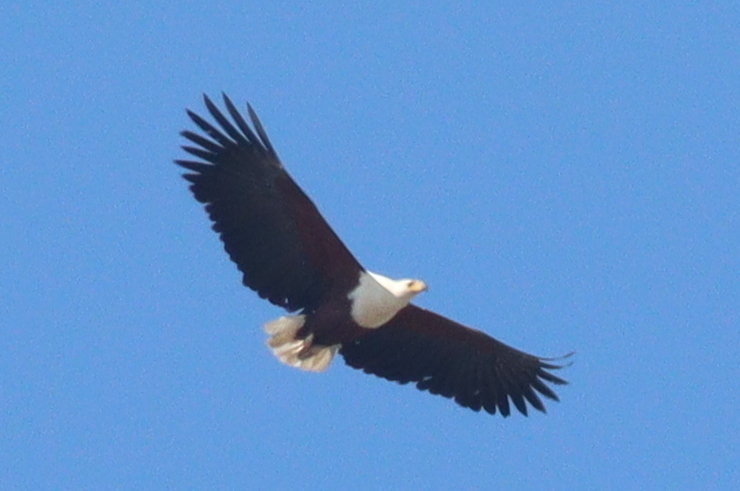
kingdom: Animalia
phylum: Chordata
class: Aves
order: Accipitriformes
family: Accipitridae
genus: Haliaeetus
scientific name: Haliaeetus vocifer
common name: African fish eagle
